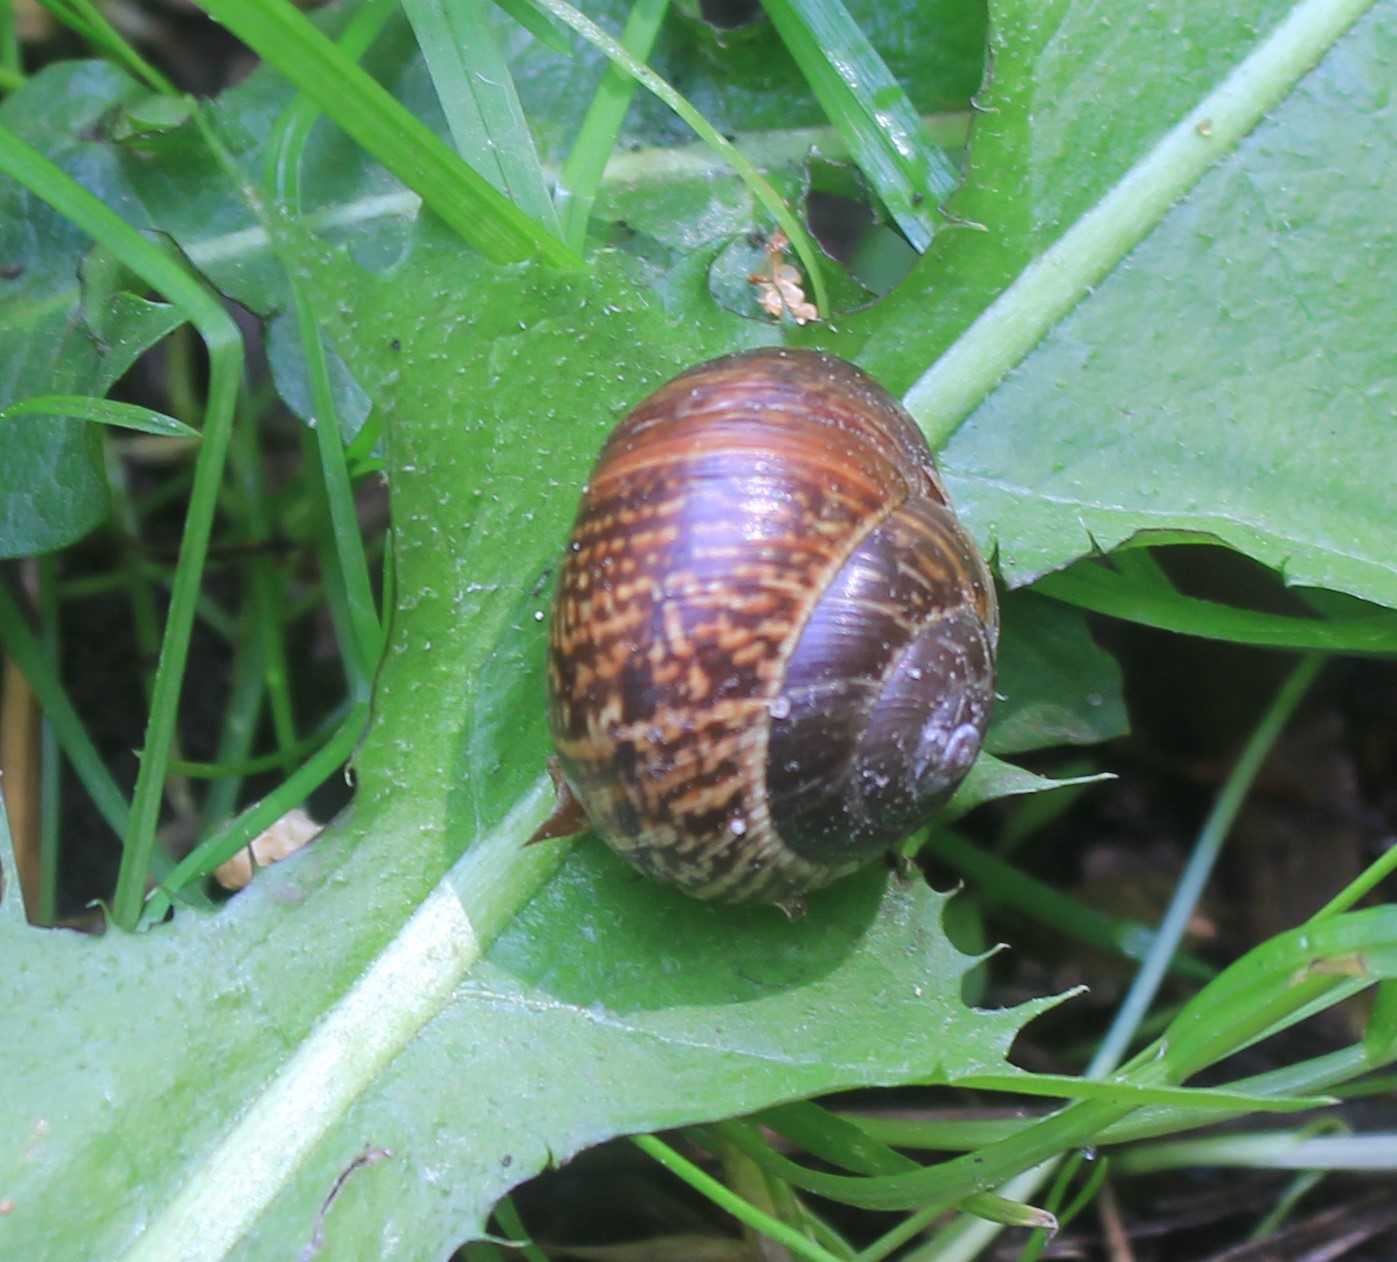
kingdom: Animalia
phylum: Mollusca
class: Gastropoda
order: Stylommatophora
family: Helicidae
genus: Arianta
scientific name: Arianta arbustorum
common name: Copse snail
